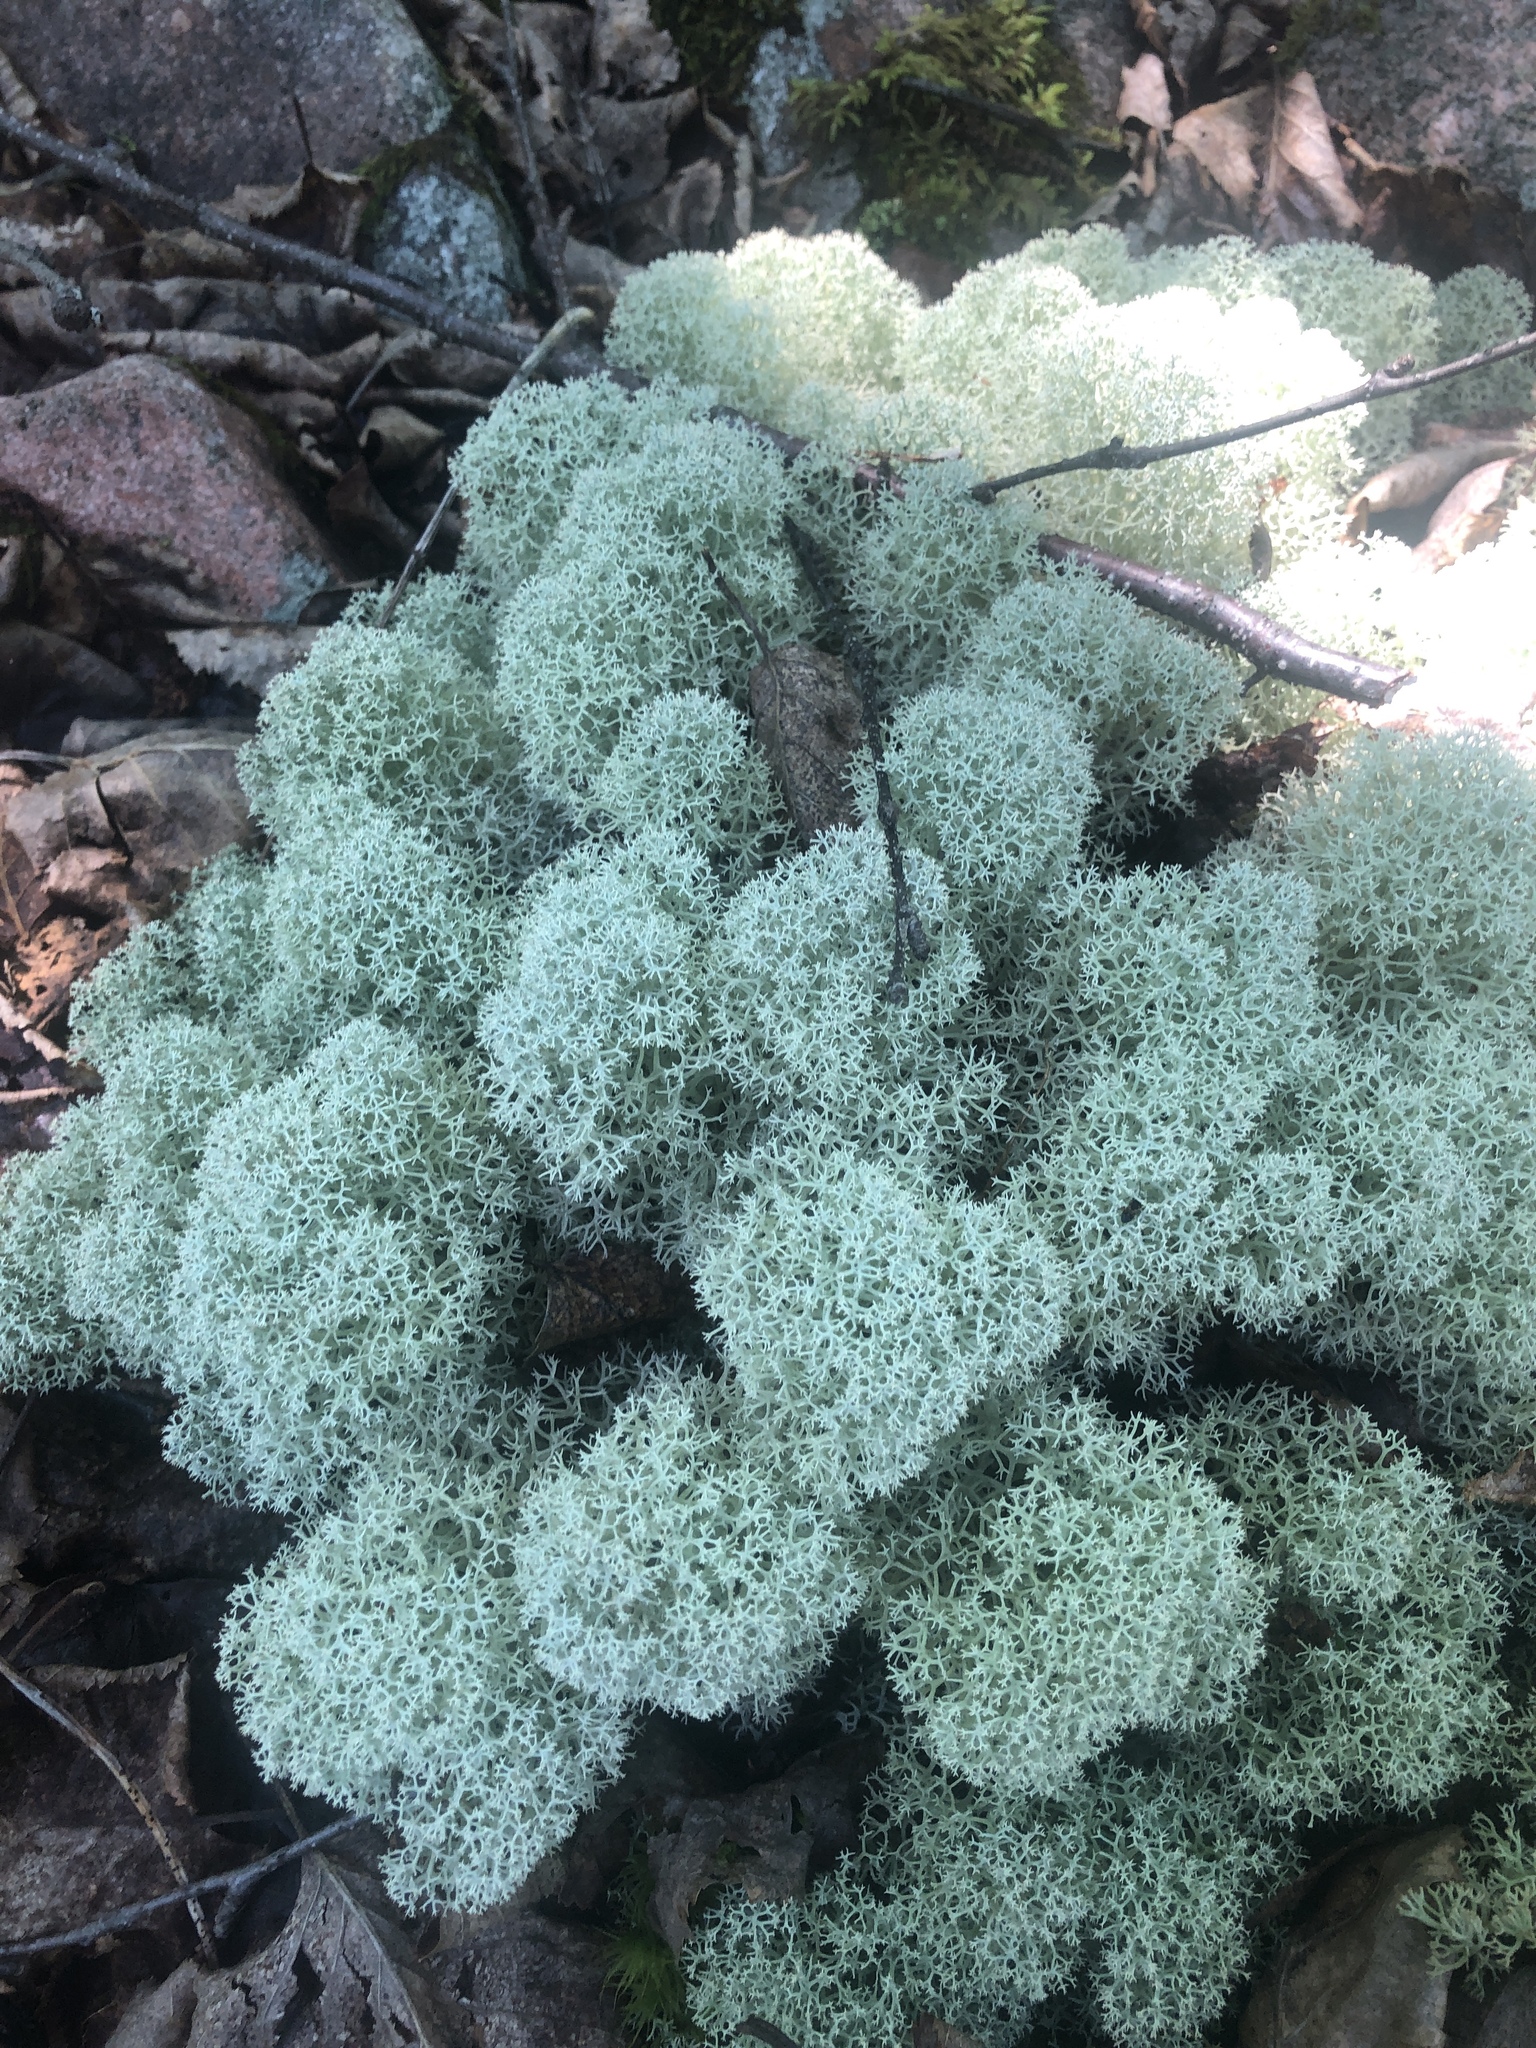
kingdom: Fungi
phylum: Ascomycota
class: Lecanoromycetes
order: Lecanorales
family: Cladoniaceae
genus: Cladonia
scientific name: Cladonia stellaris
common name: Star-tipped reindeer lichen
